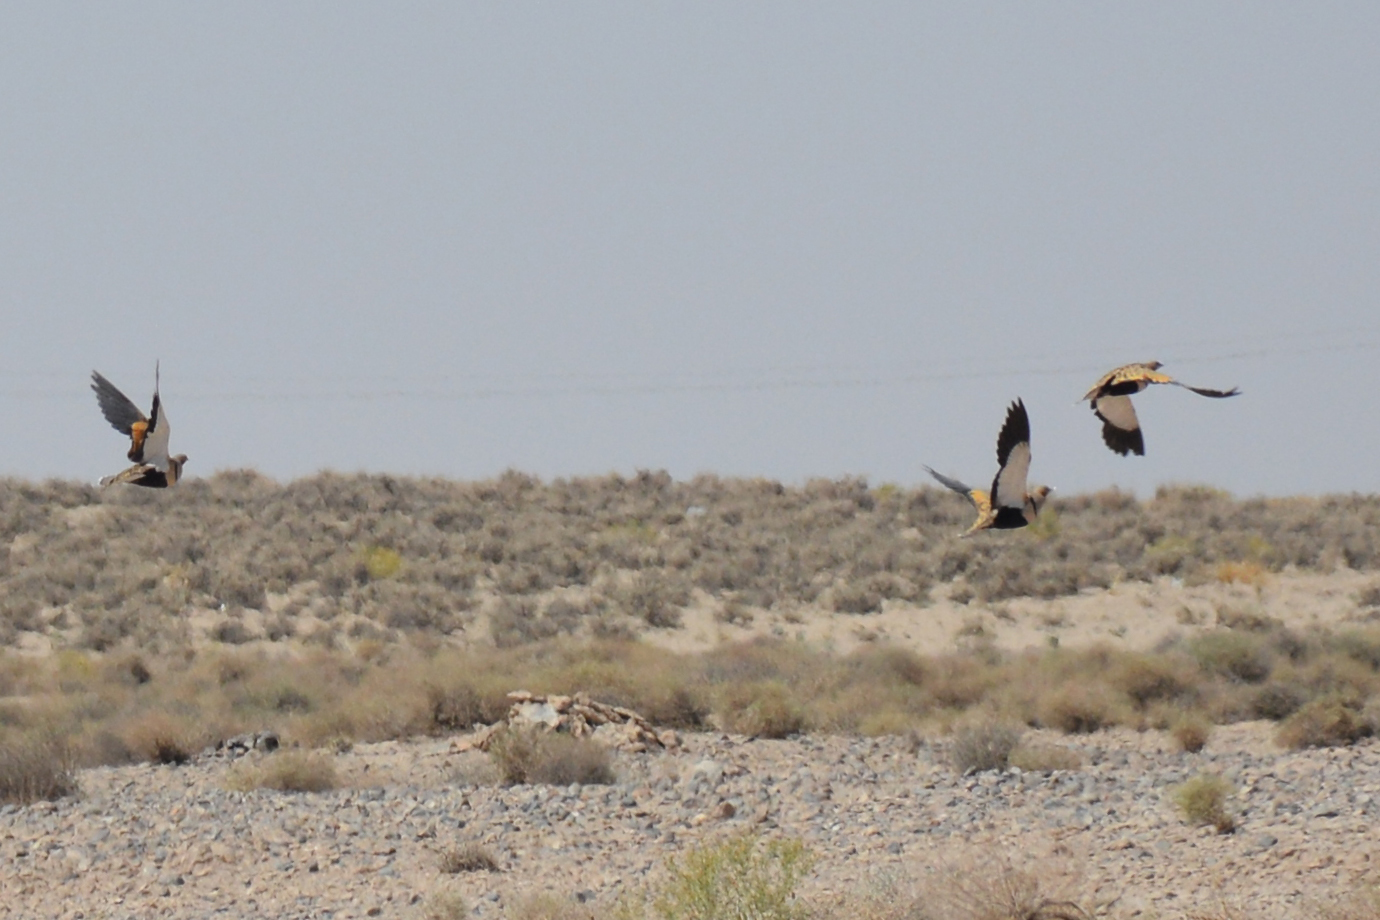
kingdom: Animalia
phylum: Chordata
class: Aves
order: Pteroclidiformes
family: Pteroclididae
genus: Pterocles
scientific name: Pterocles orientalis
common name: Black-bellied sandgrouse
